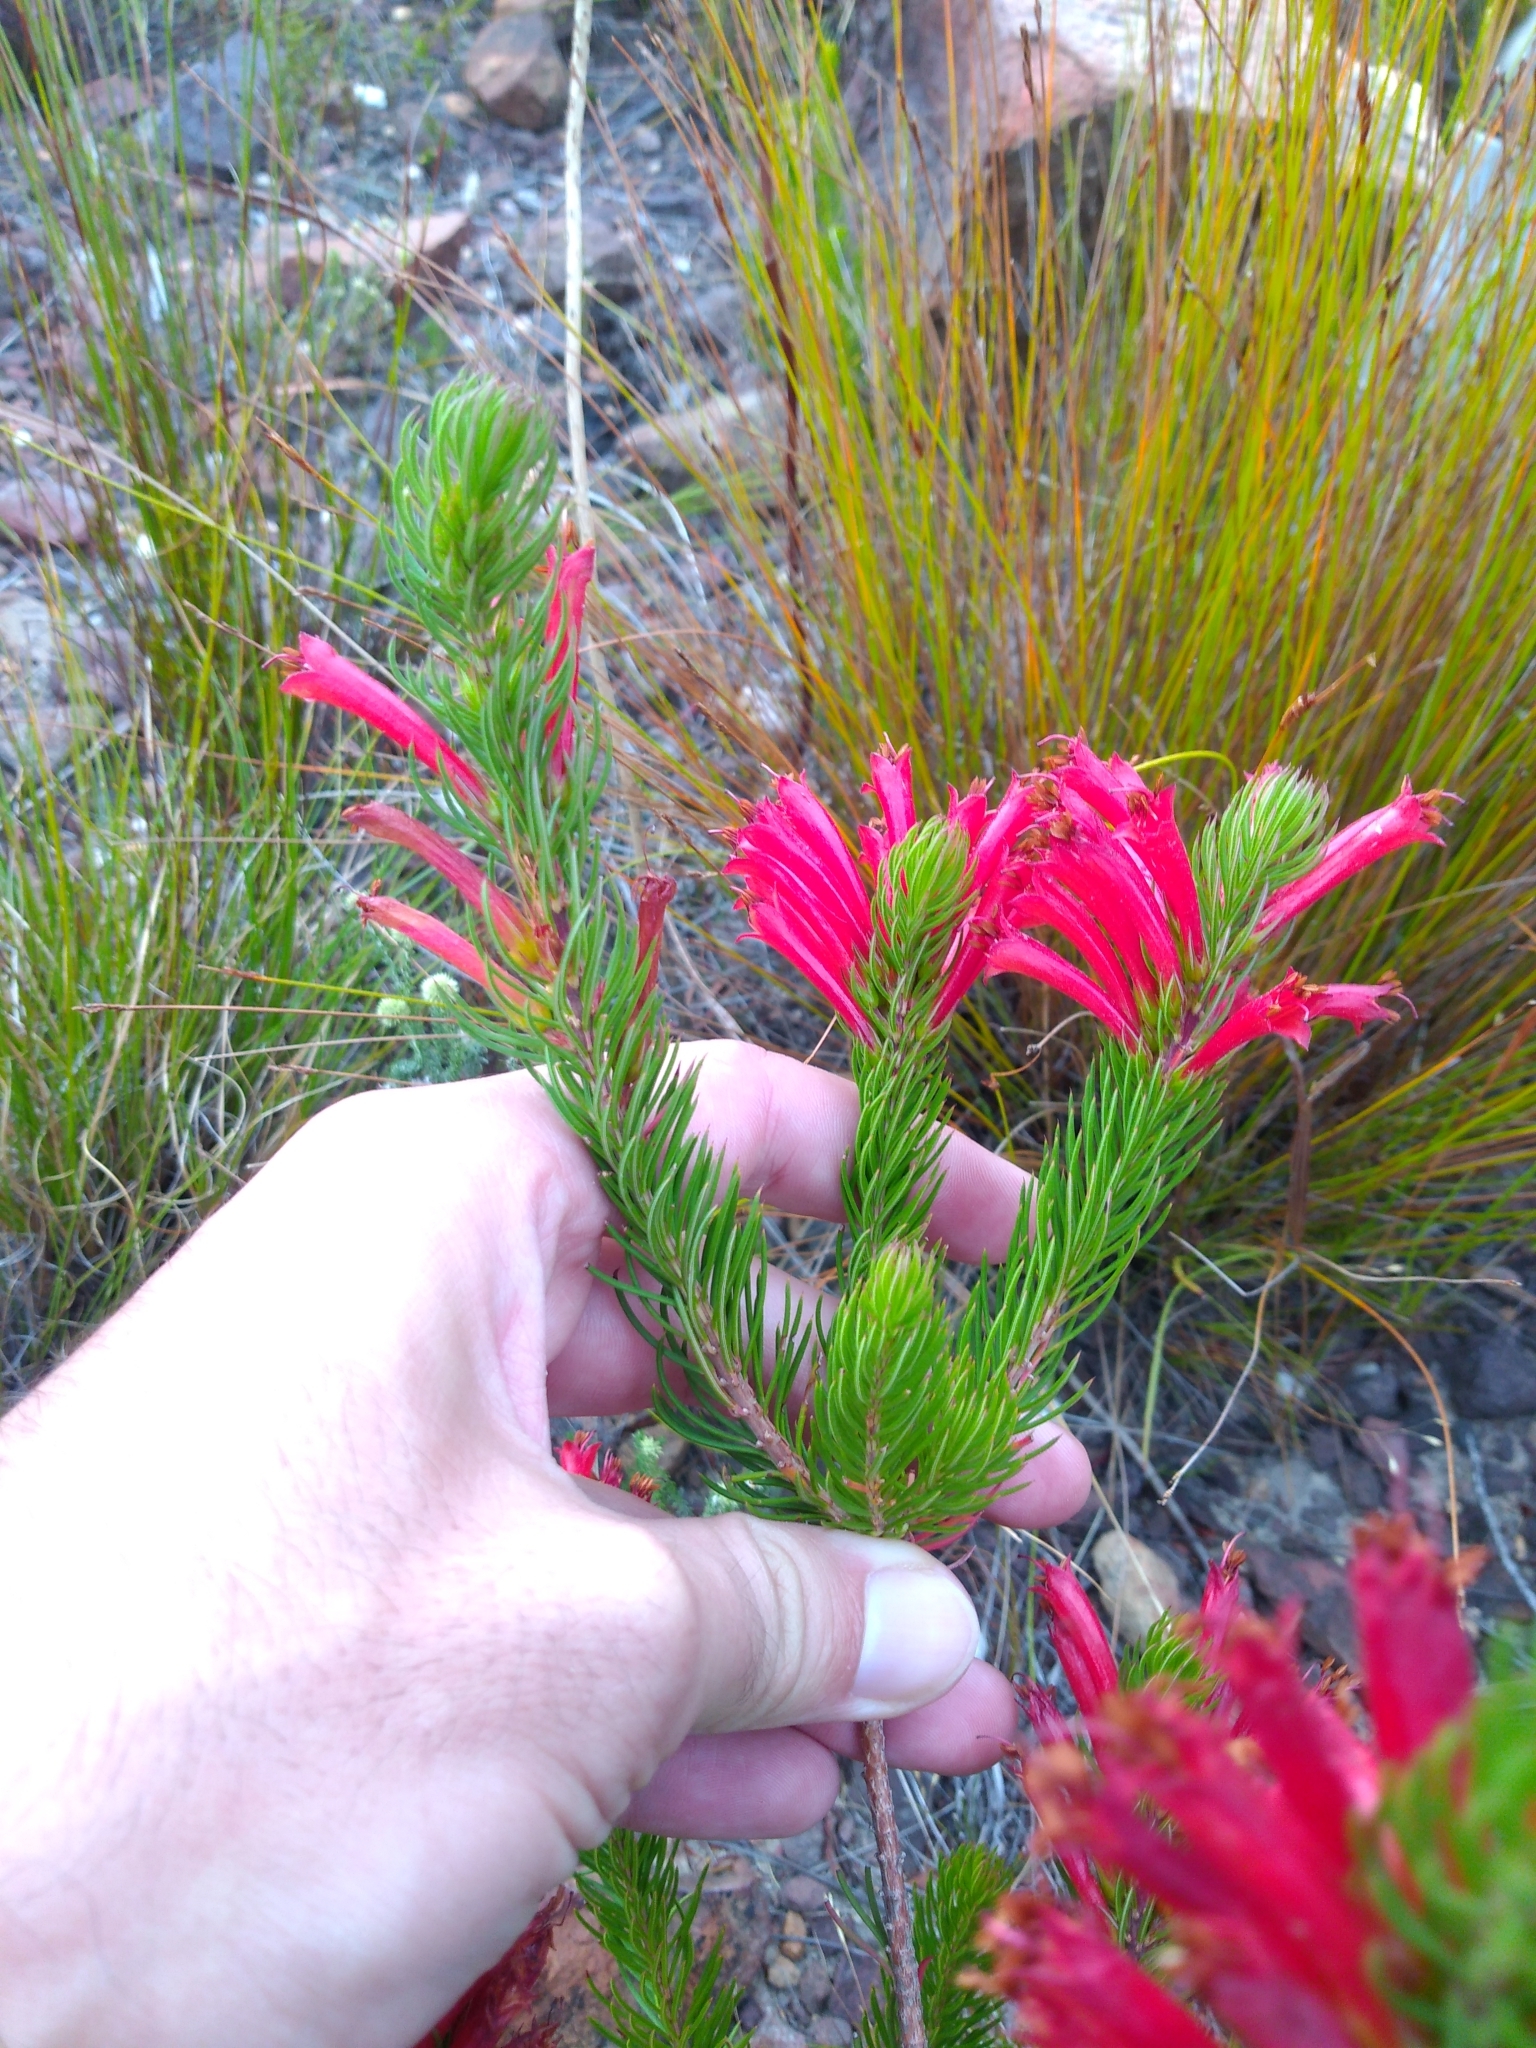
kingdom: Plantae
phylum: Tracheophyta
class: Magnoliopsida
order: Ericales
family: Ericaceae
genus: Erica
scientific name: Erica grandiflora
